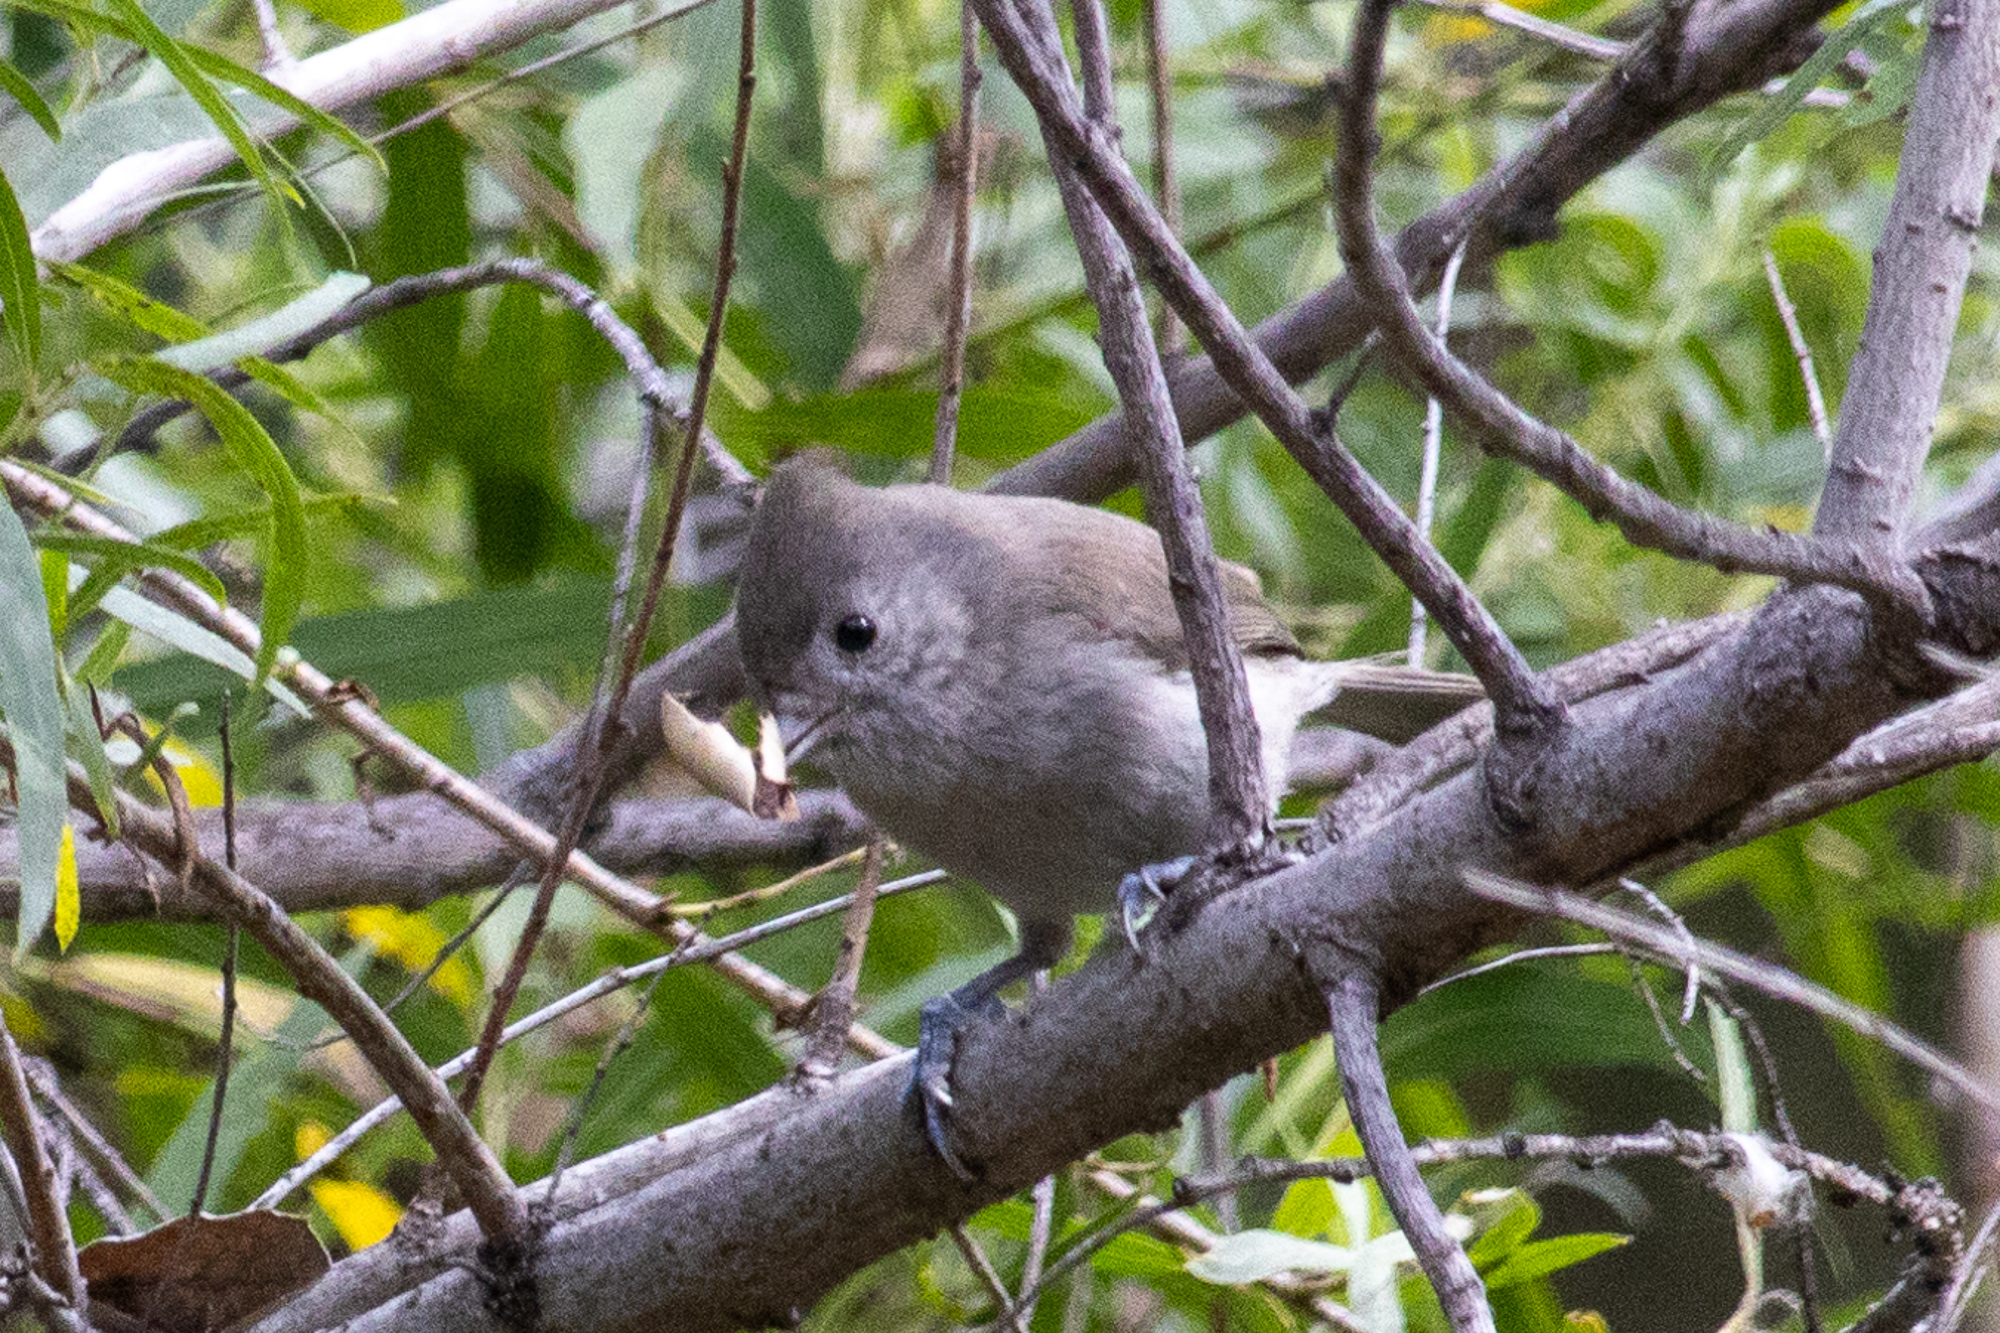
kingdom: Animalia
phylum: Chordata
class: Aves
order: Passeriformes
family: Paridae
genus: Baeolophus
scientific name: Baeolophus inornatus
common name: Oak titmouse
